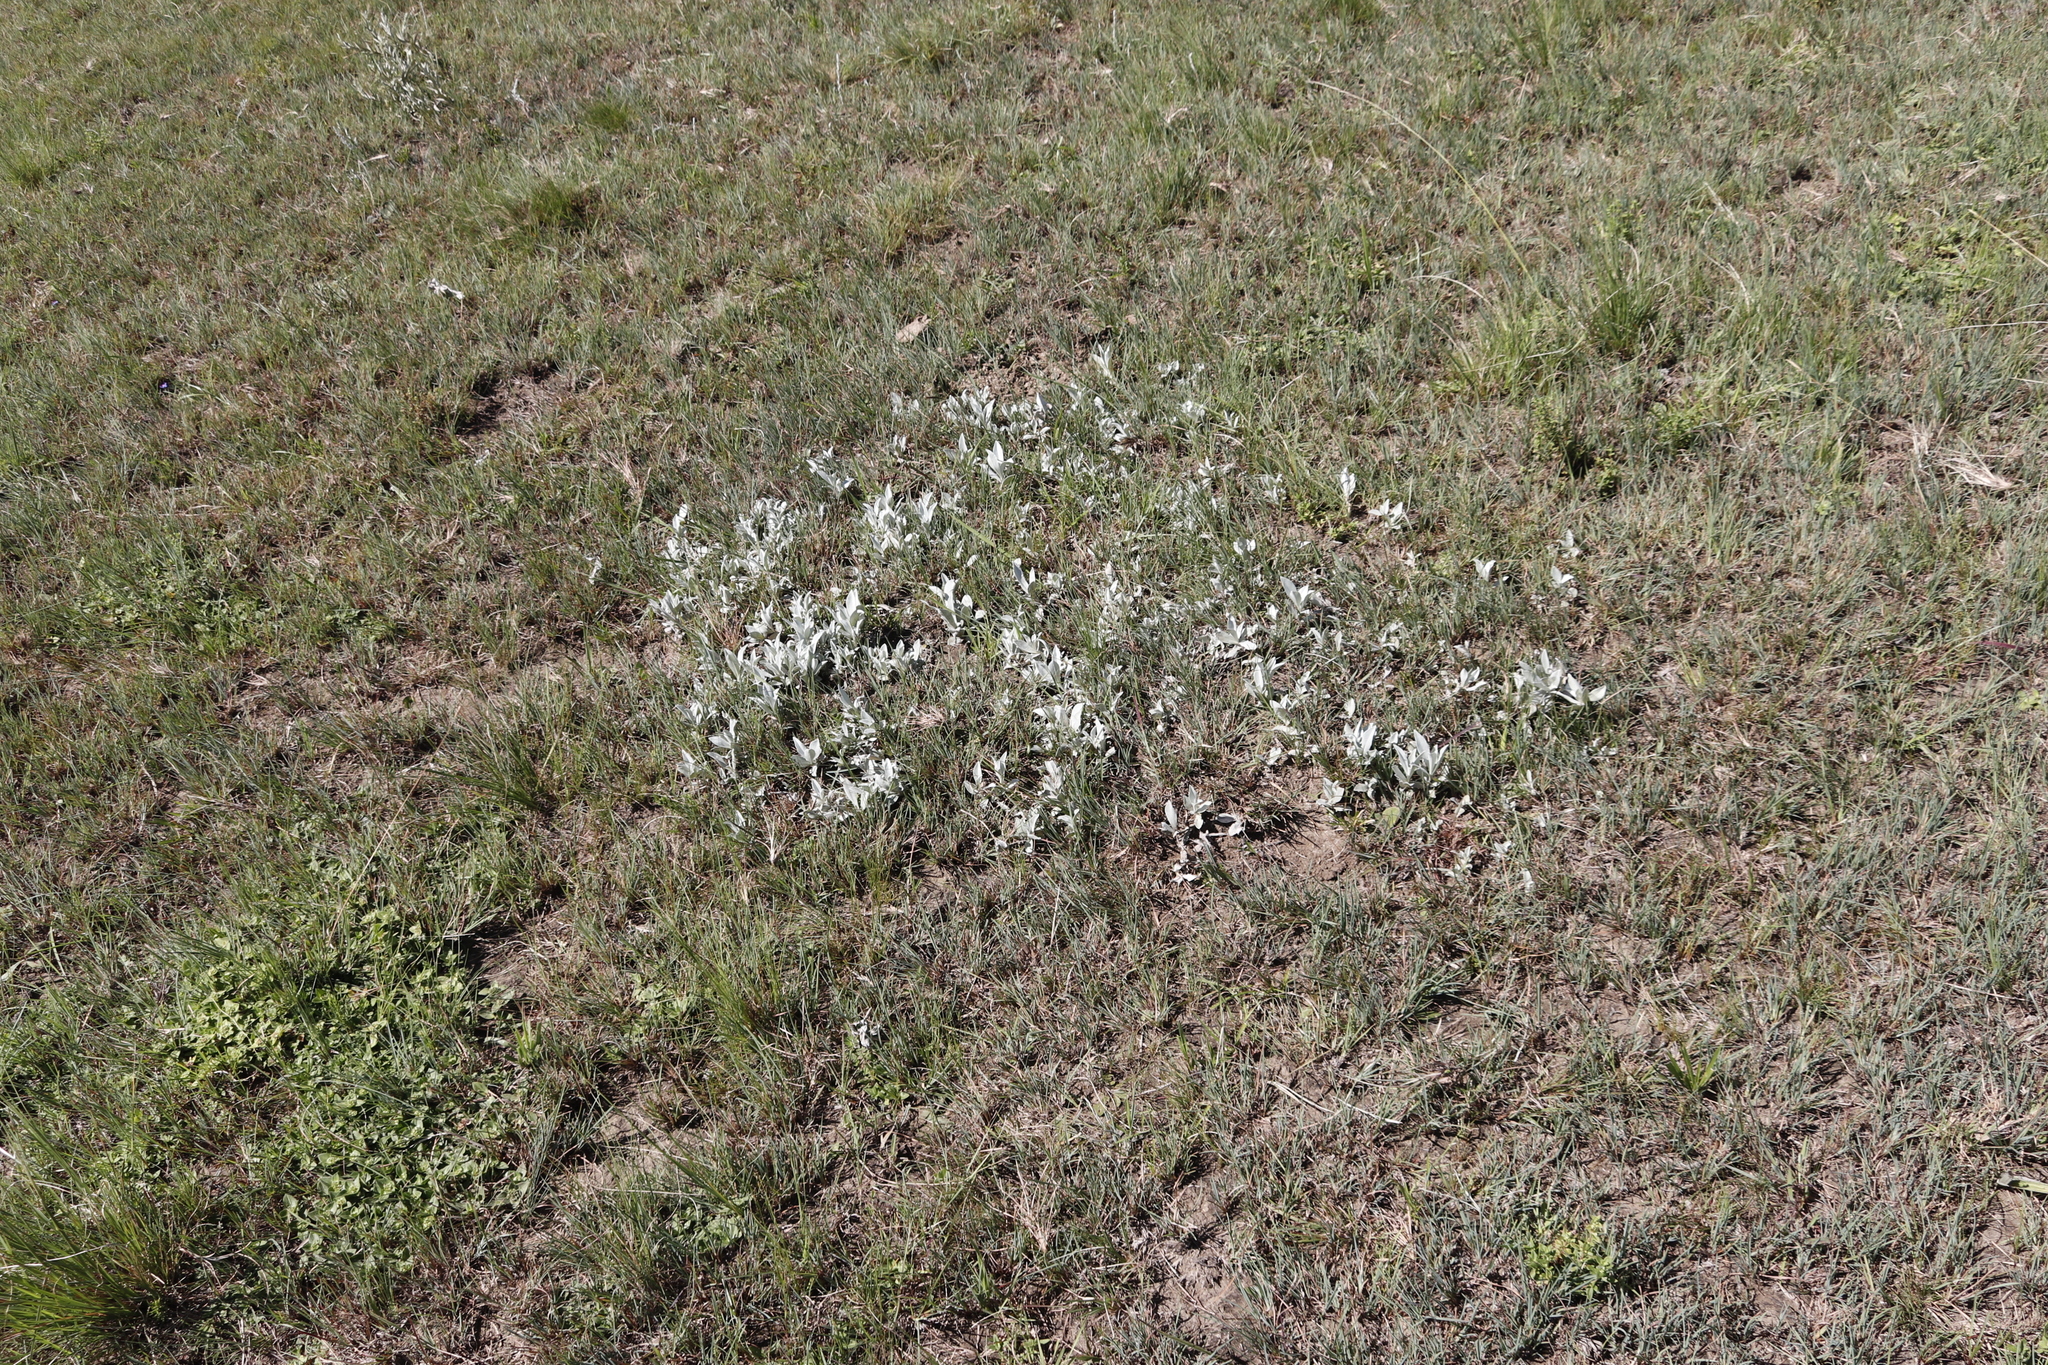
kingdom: Plantae
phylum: Tracheophyta
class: Magnoliopsida
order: Asterales
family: Asteraceae
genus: Helichrysum
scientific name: Helichrysum oreophilum
